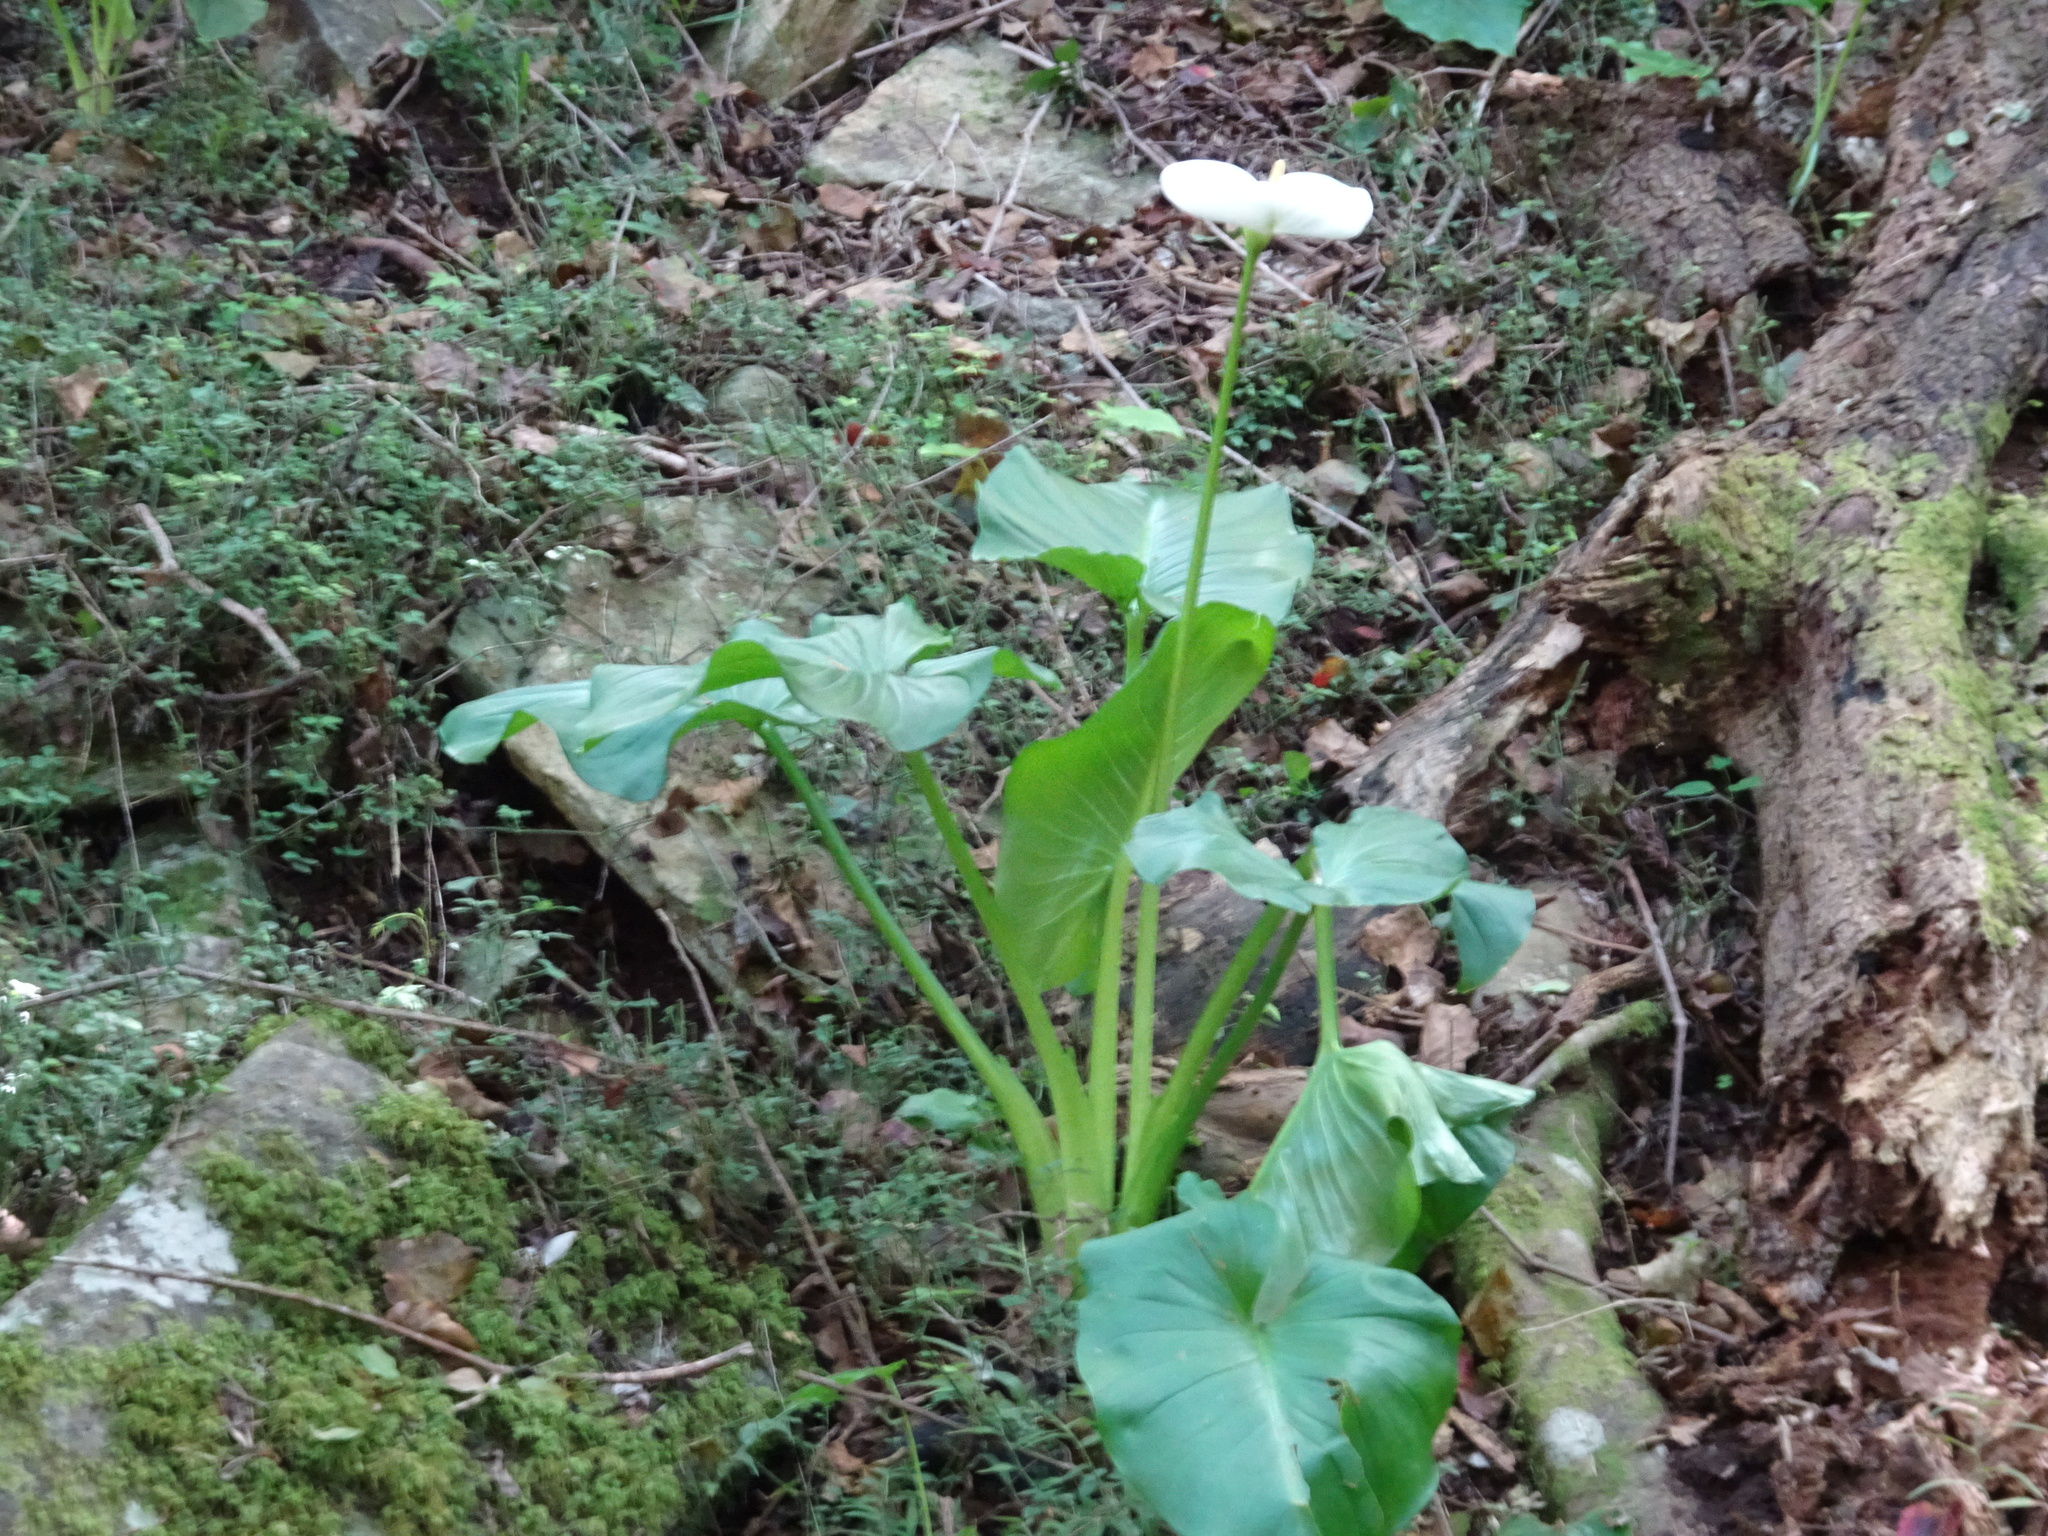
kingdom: Plantae
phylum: Tracheophyta
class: Liliopsida
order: Alismatales
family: Araceae
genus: Zantedeschia
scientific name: Zantedeschia aethiopica
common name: Altar-lily
